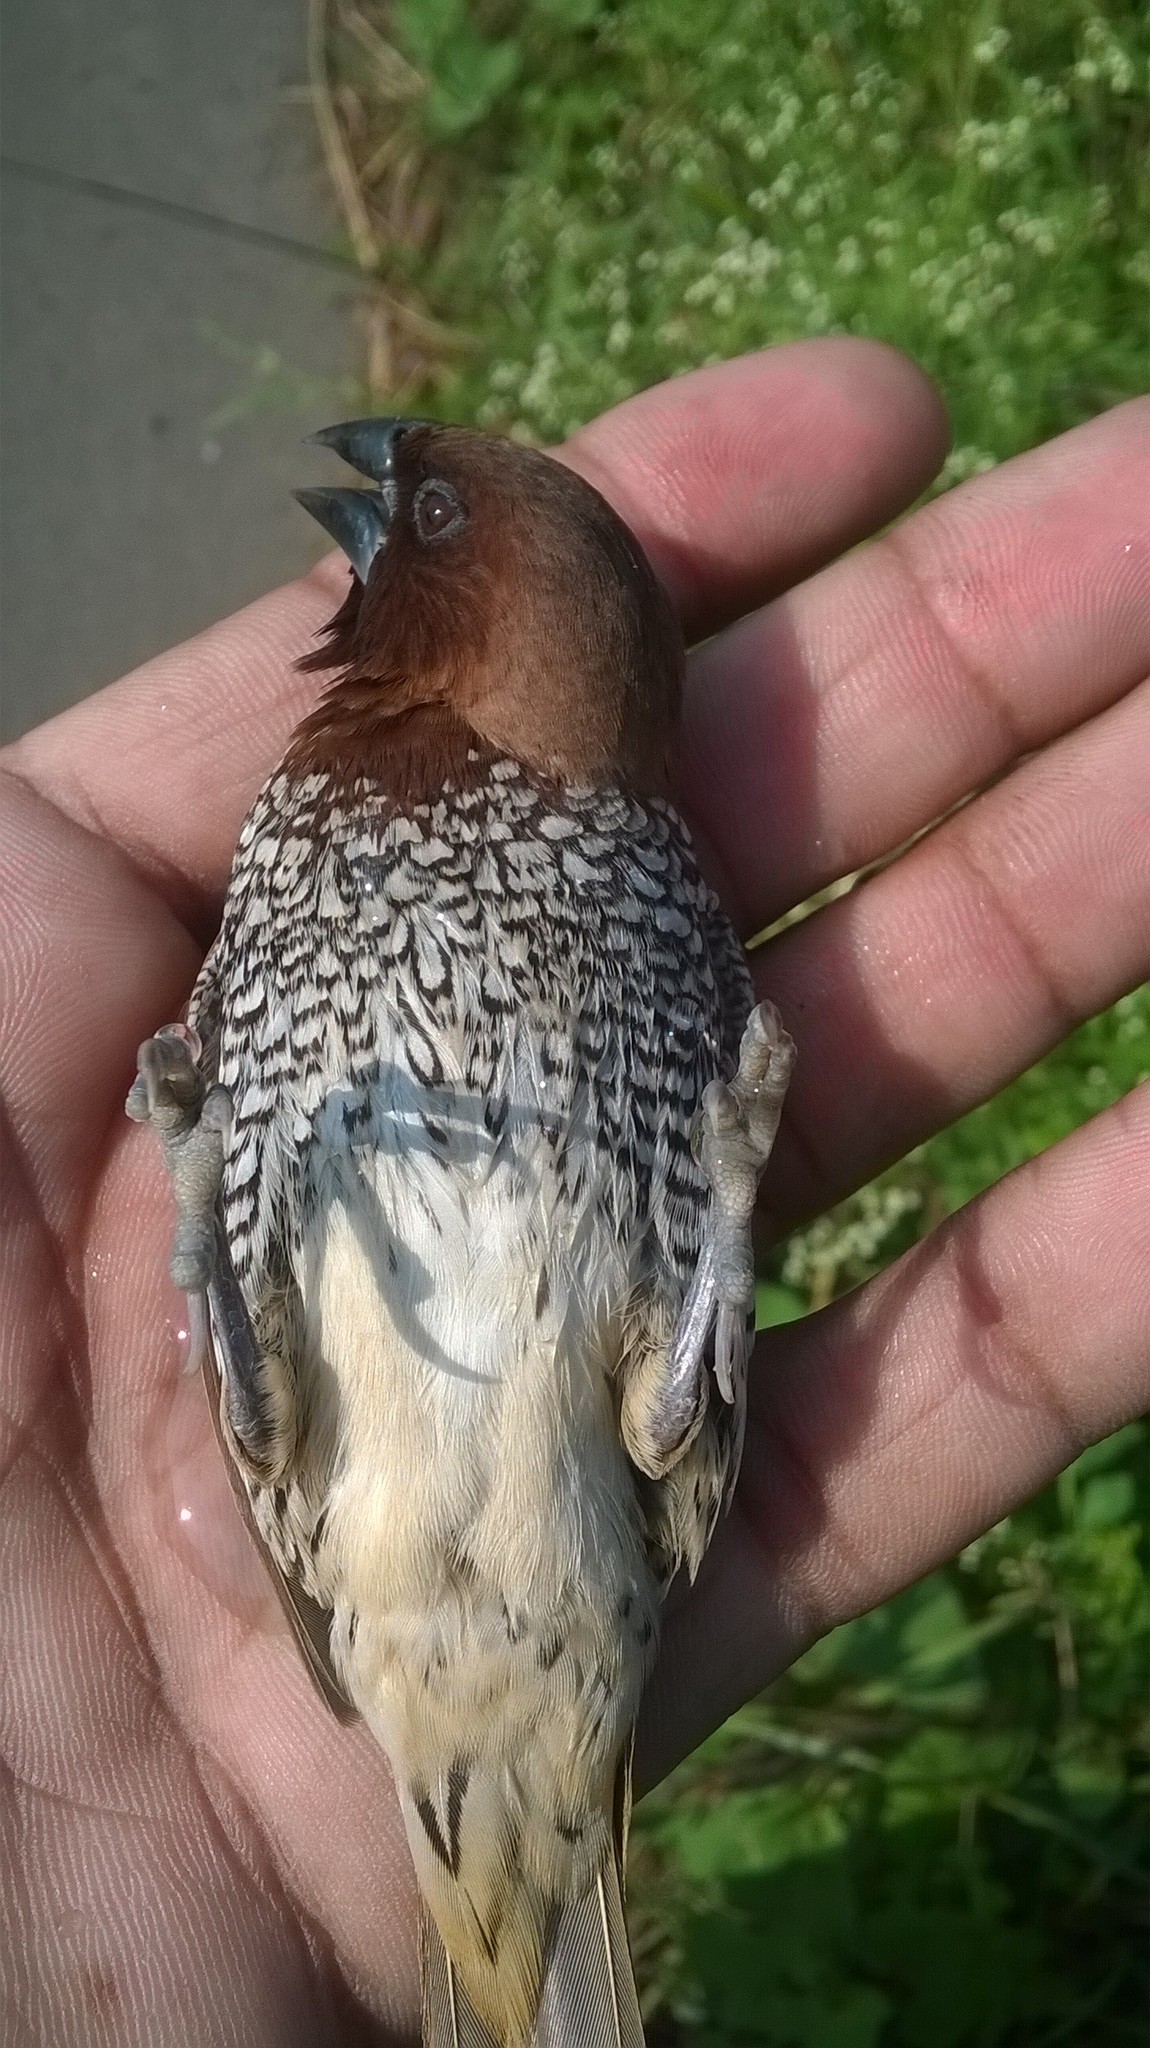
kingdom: Animalia
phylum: Chordata
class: Aves
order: Passeriformes
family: Estrildidae
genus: Lonchura
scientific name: Lonchura punctulata
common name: Scaly-breasted munia
